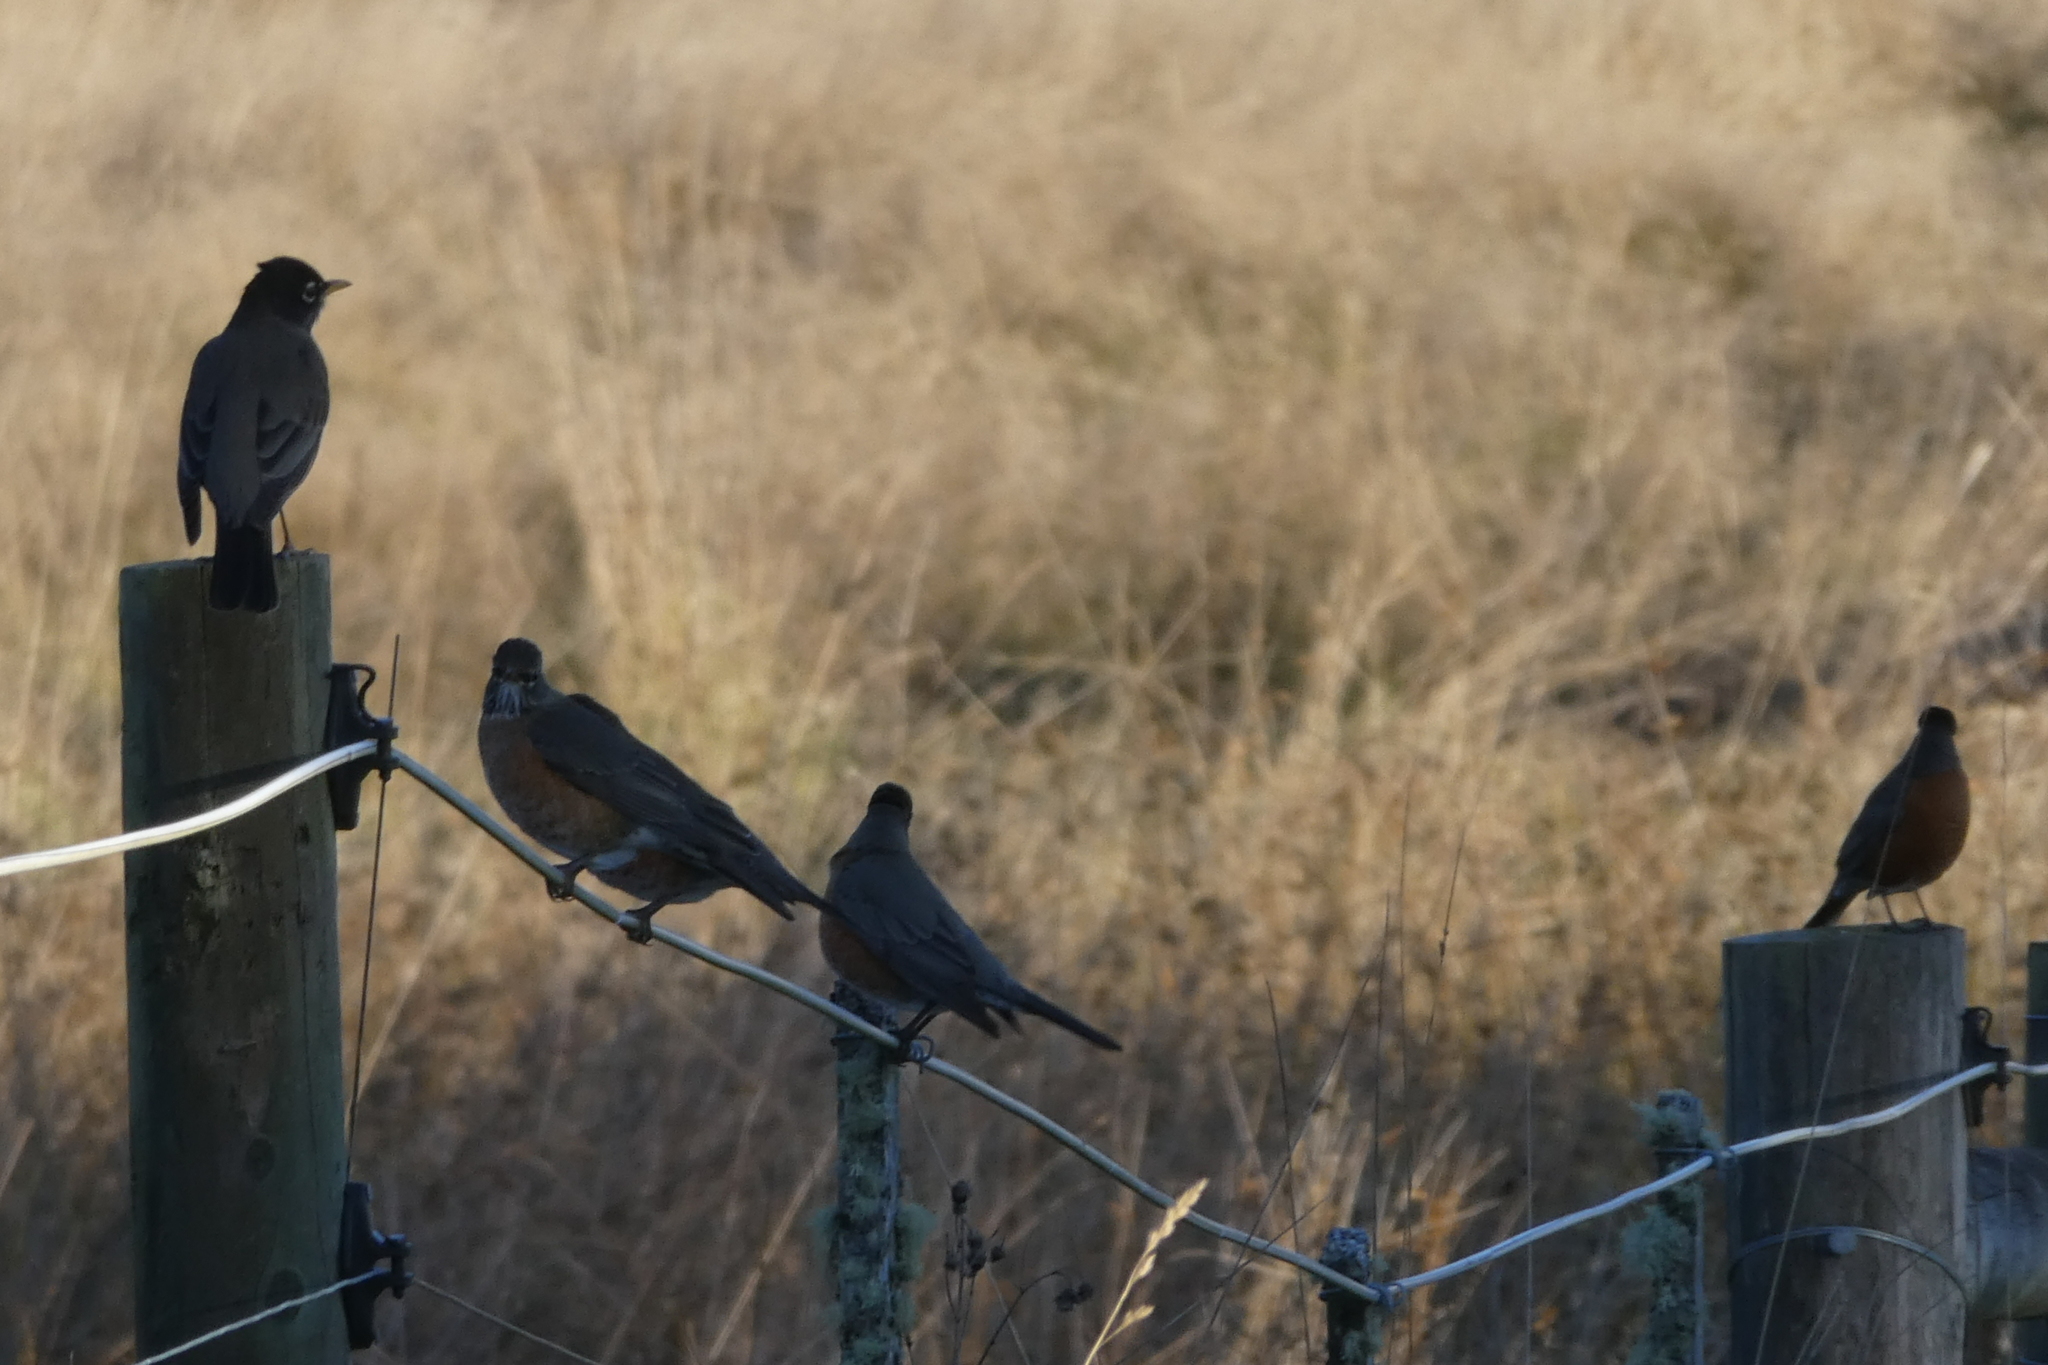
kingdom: Animalia
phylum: Chordata
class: Aves
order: Passeriformes
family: Turdidae
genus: Turdus
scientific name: Turdus migratorius
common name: American robin
